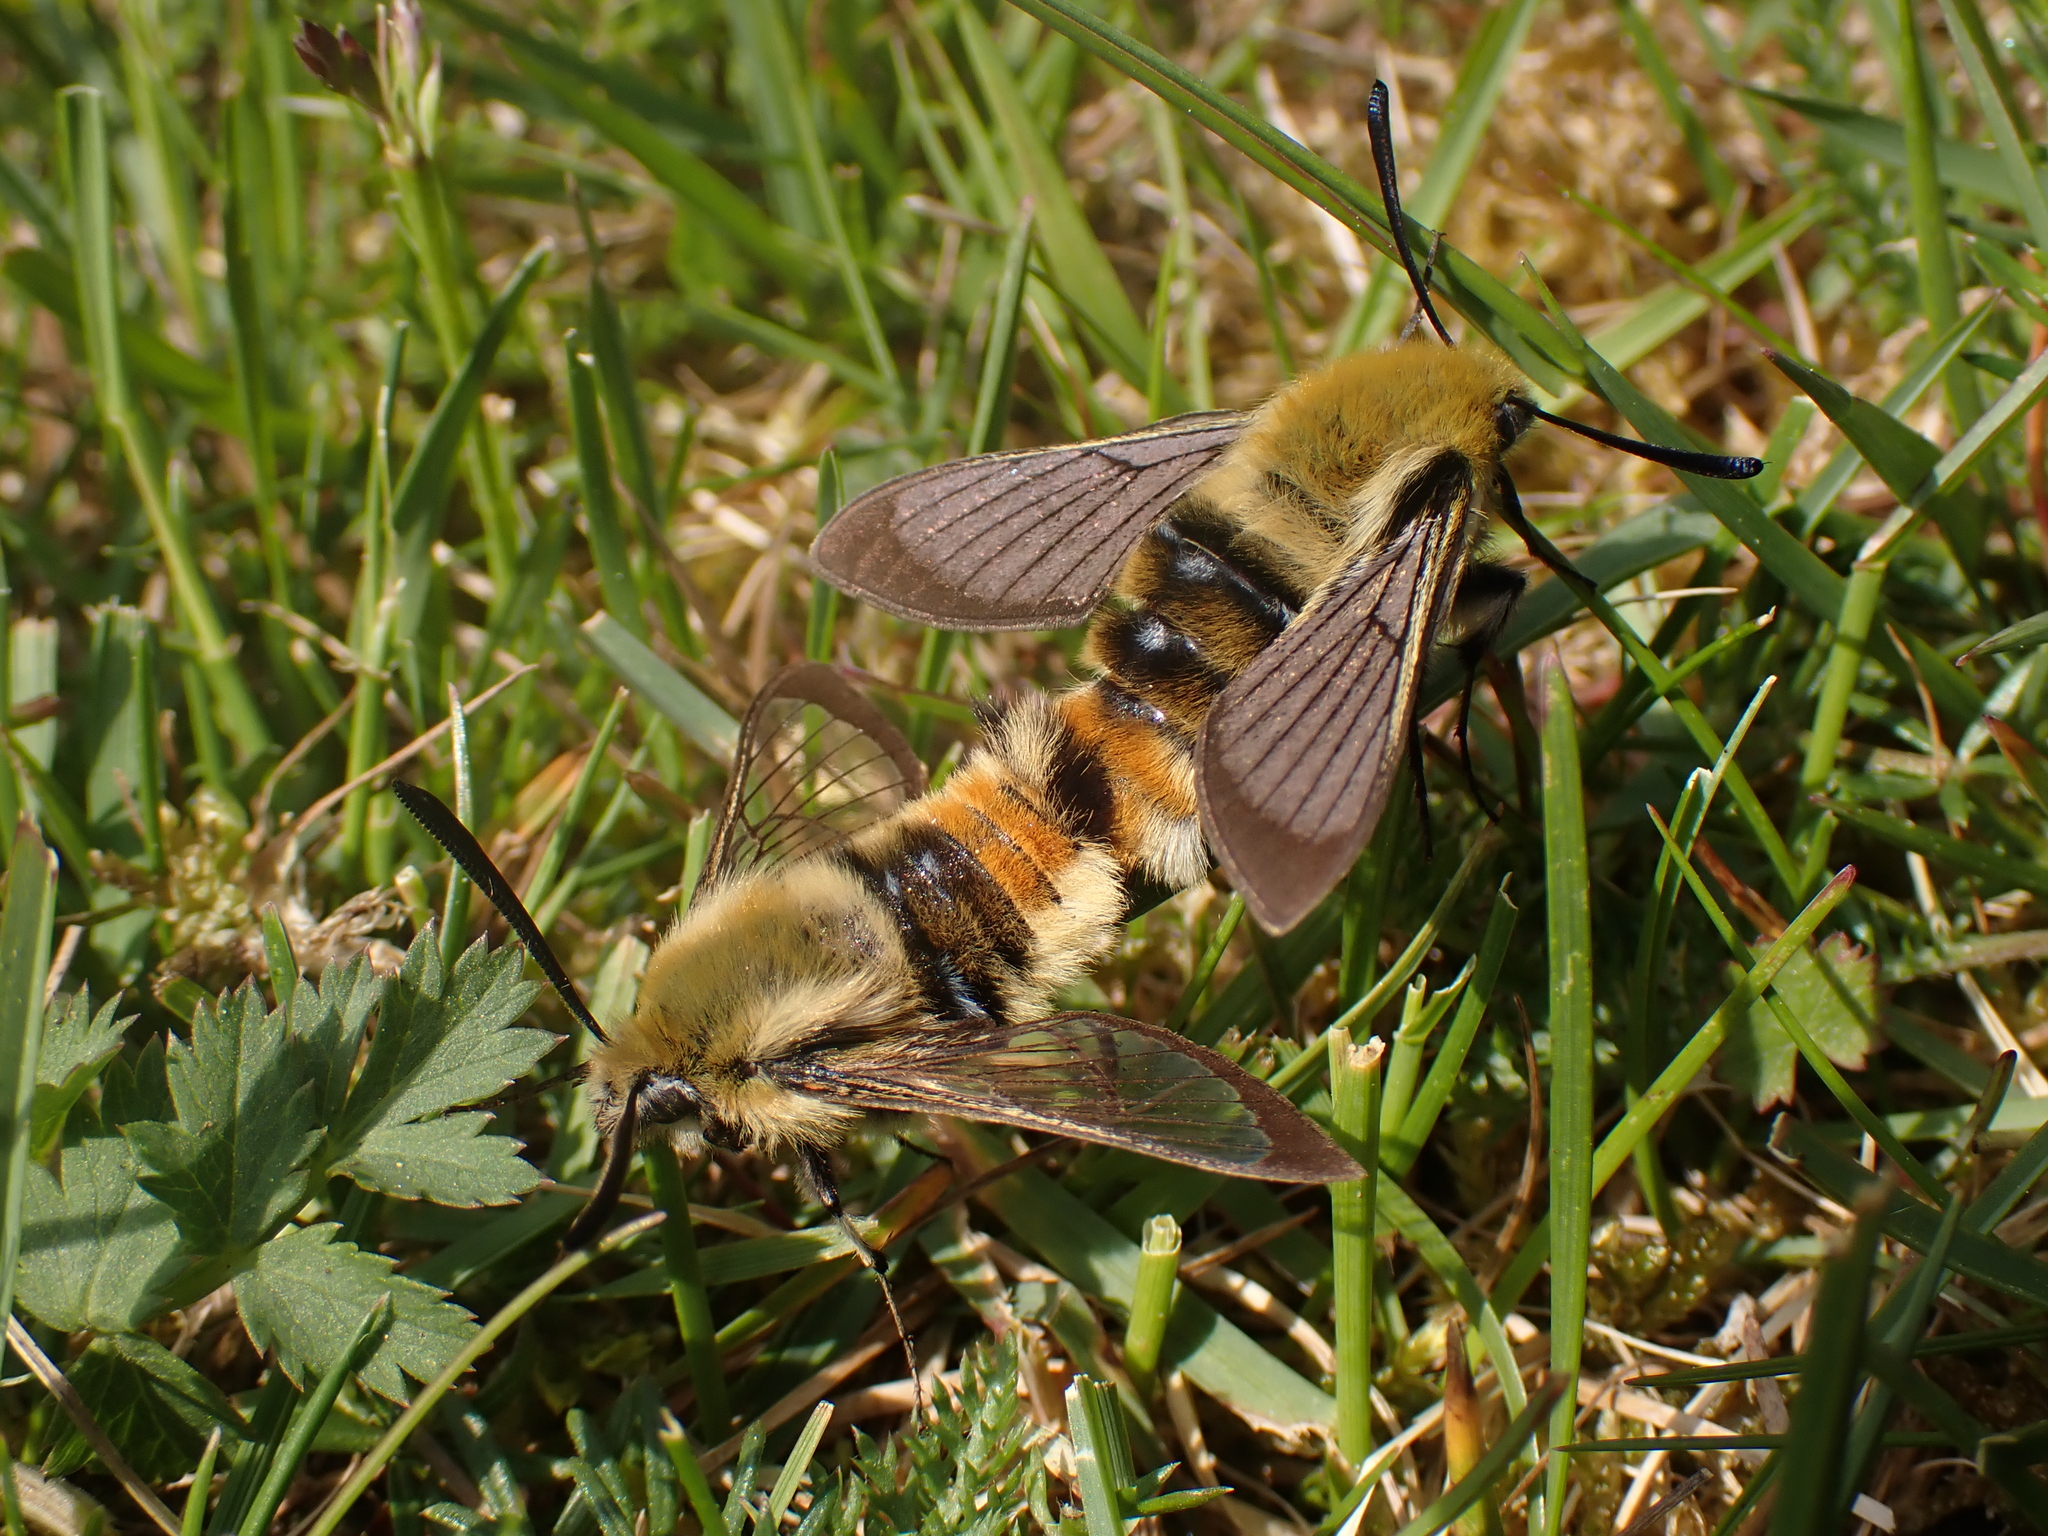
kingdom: Animalia
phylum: Arthropoda
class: Insecta
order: Lepidoptera
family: Sphingidae
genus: Hemaris
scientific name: Hemaris tityus
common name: Narrow-bordered bee hawk-moth
